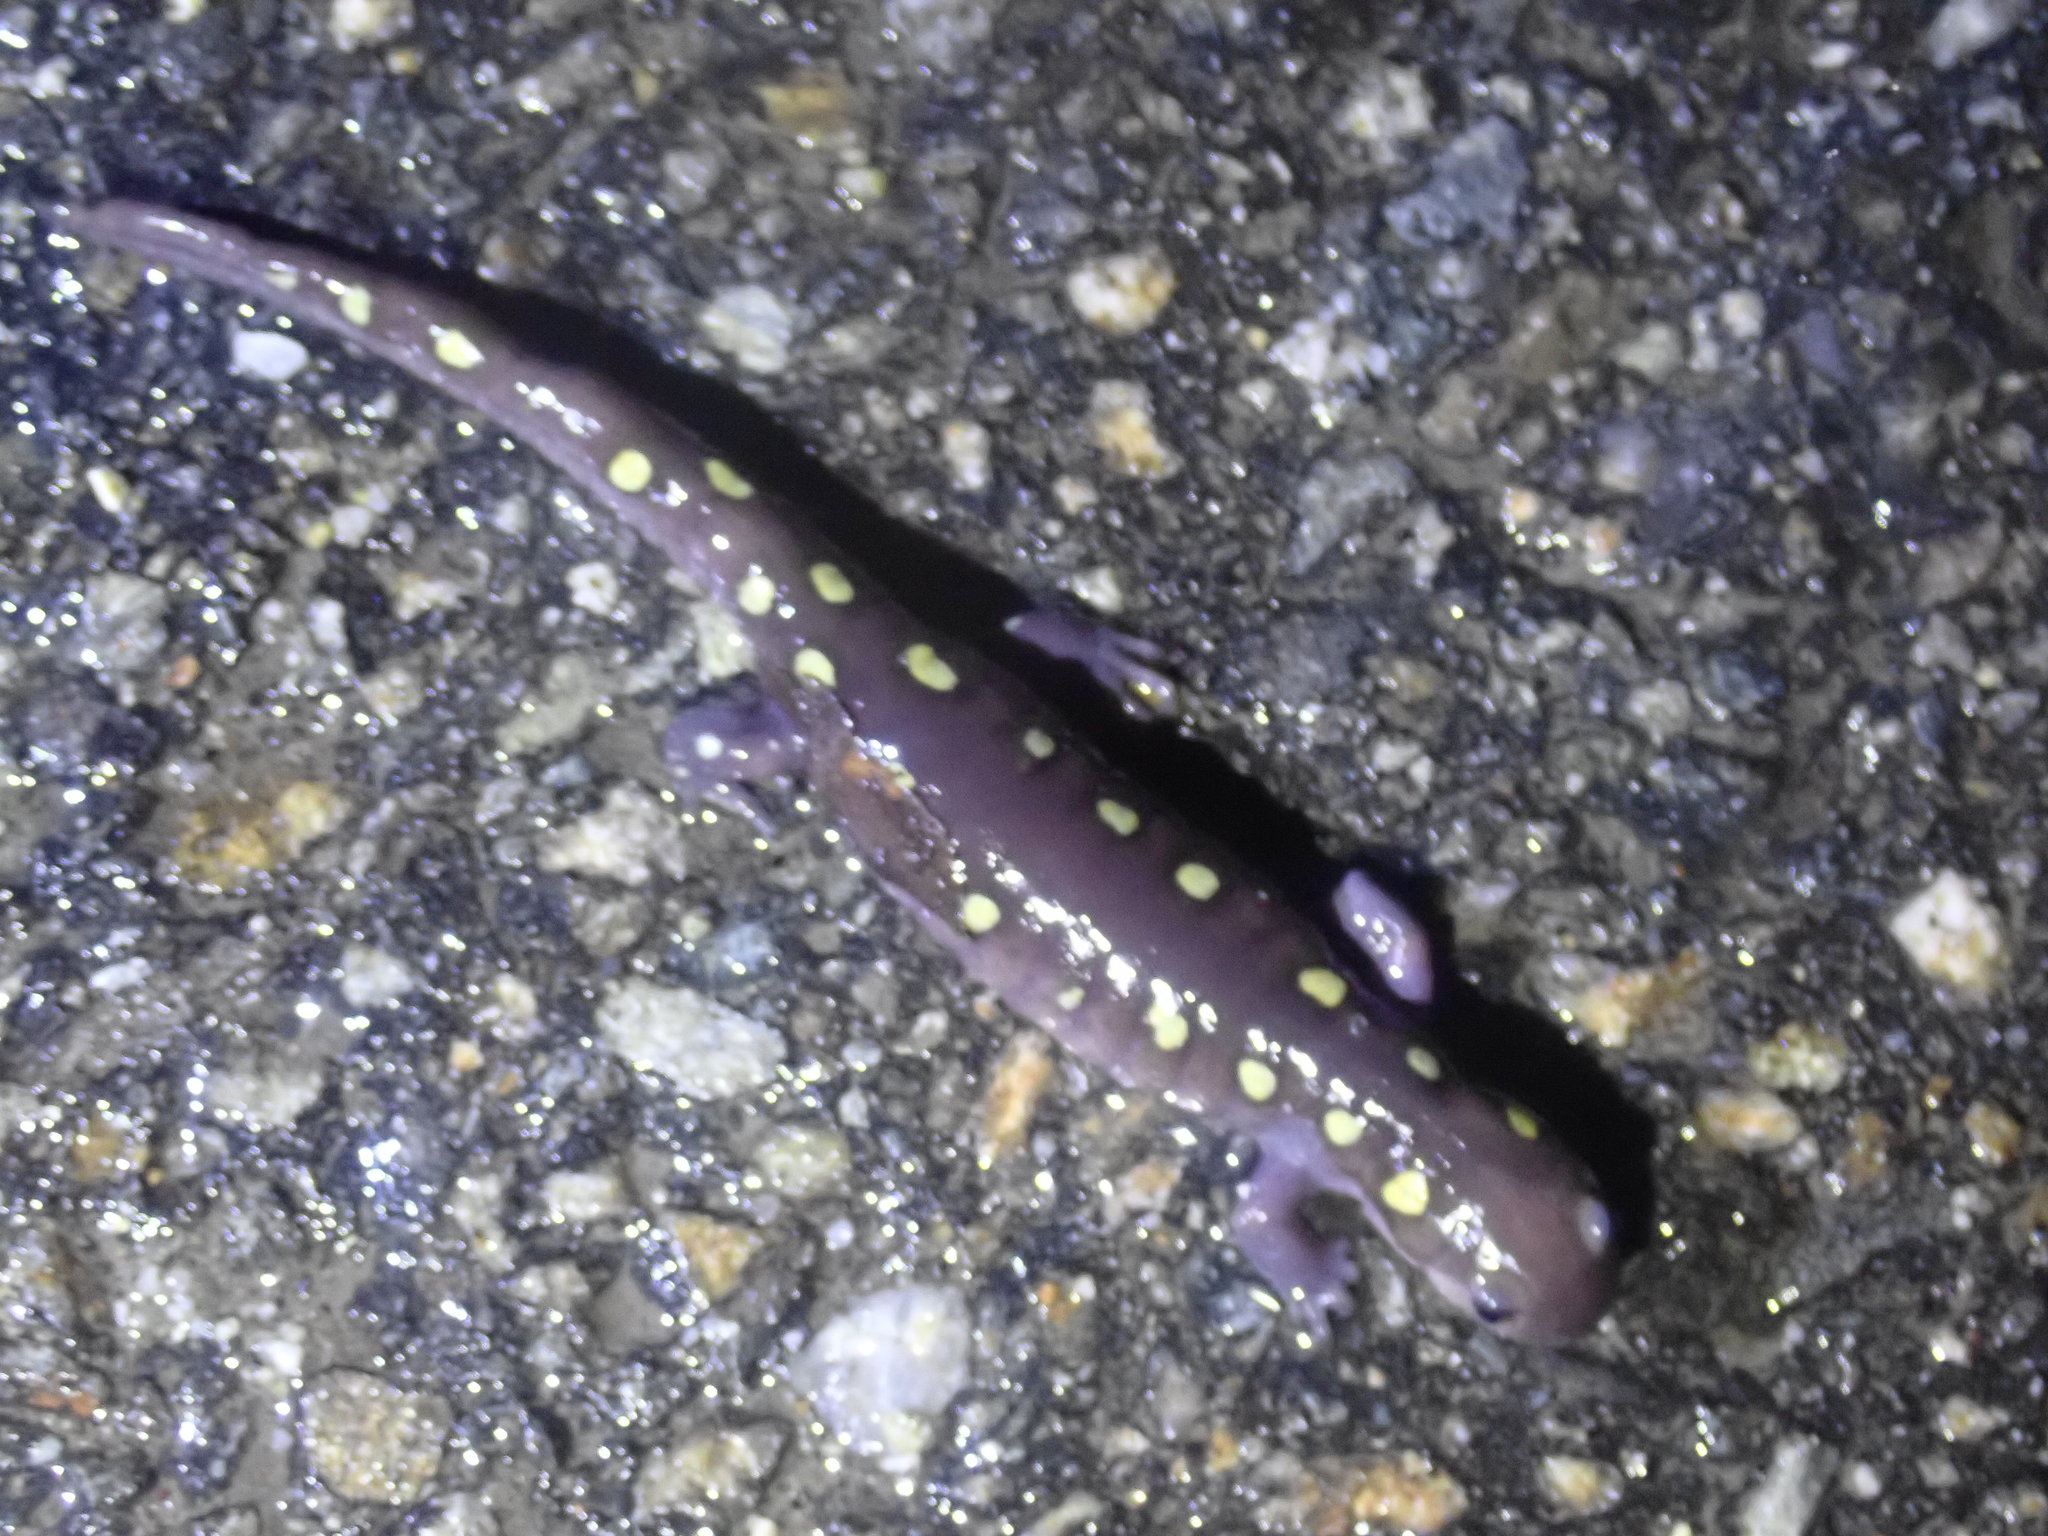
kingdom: Animalia
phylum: Chordata
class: Amphibia
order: Caudata
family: Ambystomatidae
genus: Ambystoma
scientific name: Ambystoma maculatum
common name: Spotted salamander
